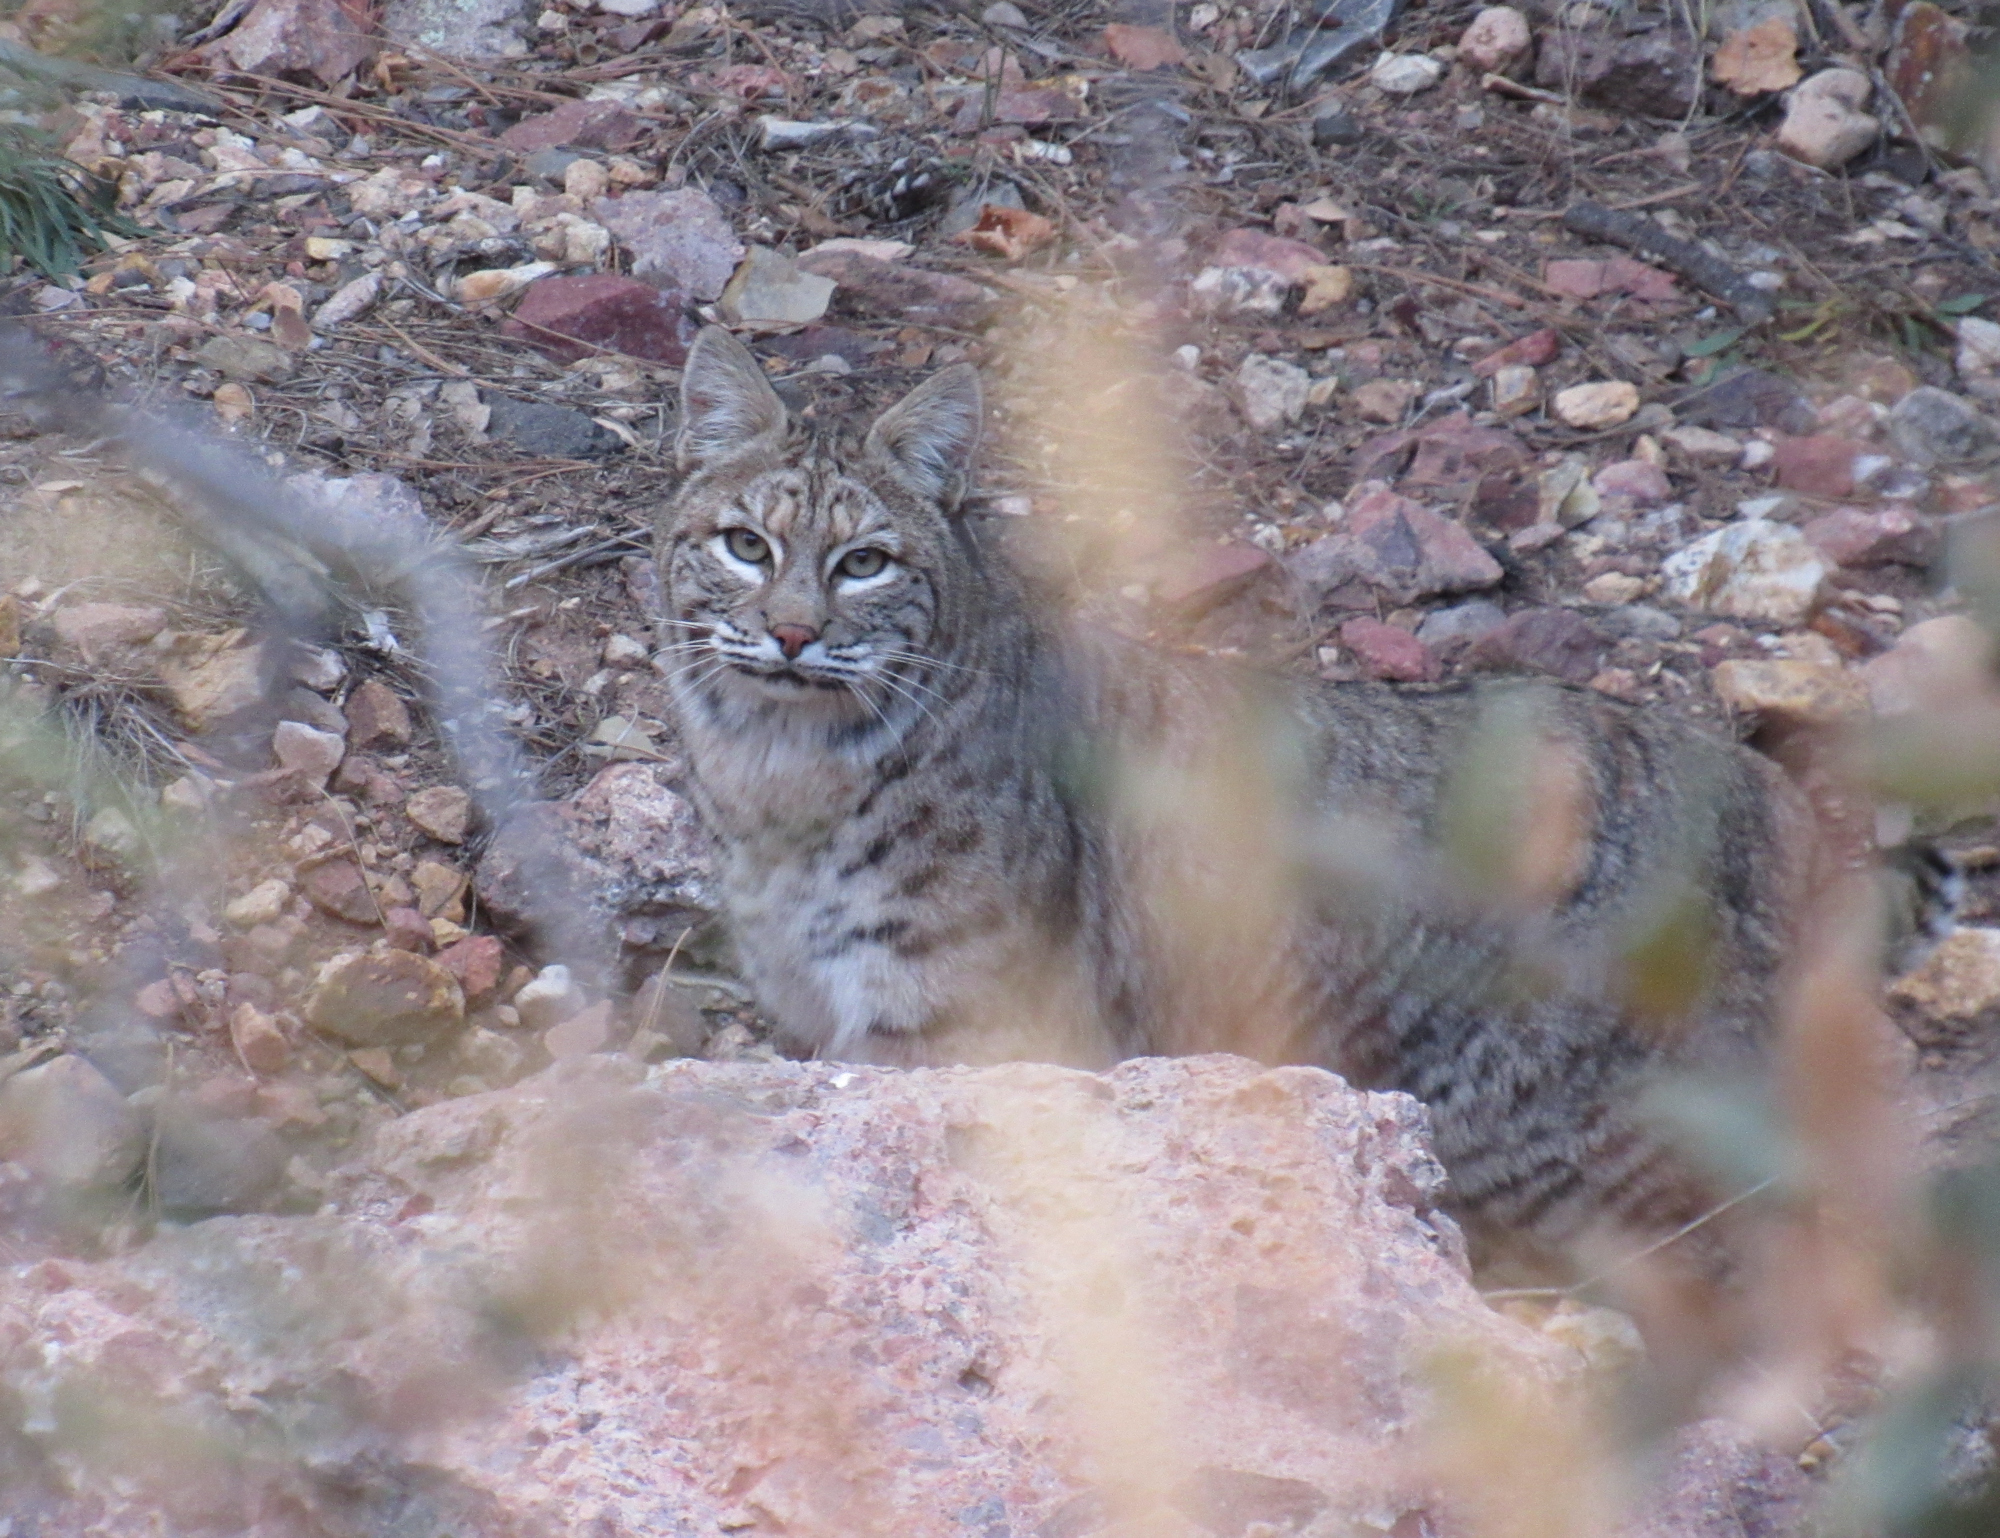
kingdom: Animalia
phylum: Chordata
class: Mammalia
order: Carnivora
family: Felidae
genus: Lynx
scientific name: Lynx rufus
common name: Bobcat
